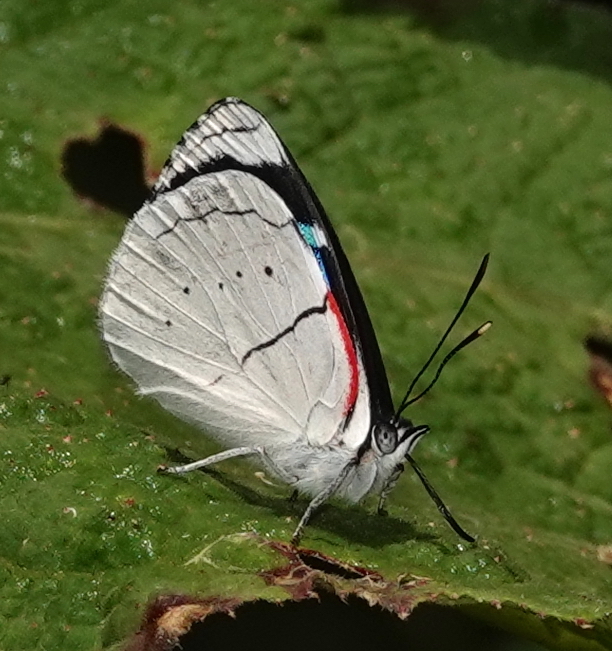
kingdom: Animalia
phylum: Arthropoda
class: Insecta
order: Lepidoptera
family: Nymphalidae
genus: Perisama
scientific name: Perisama yeba
